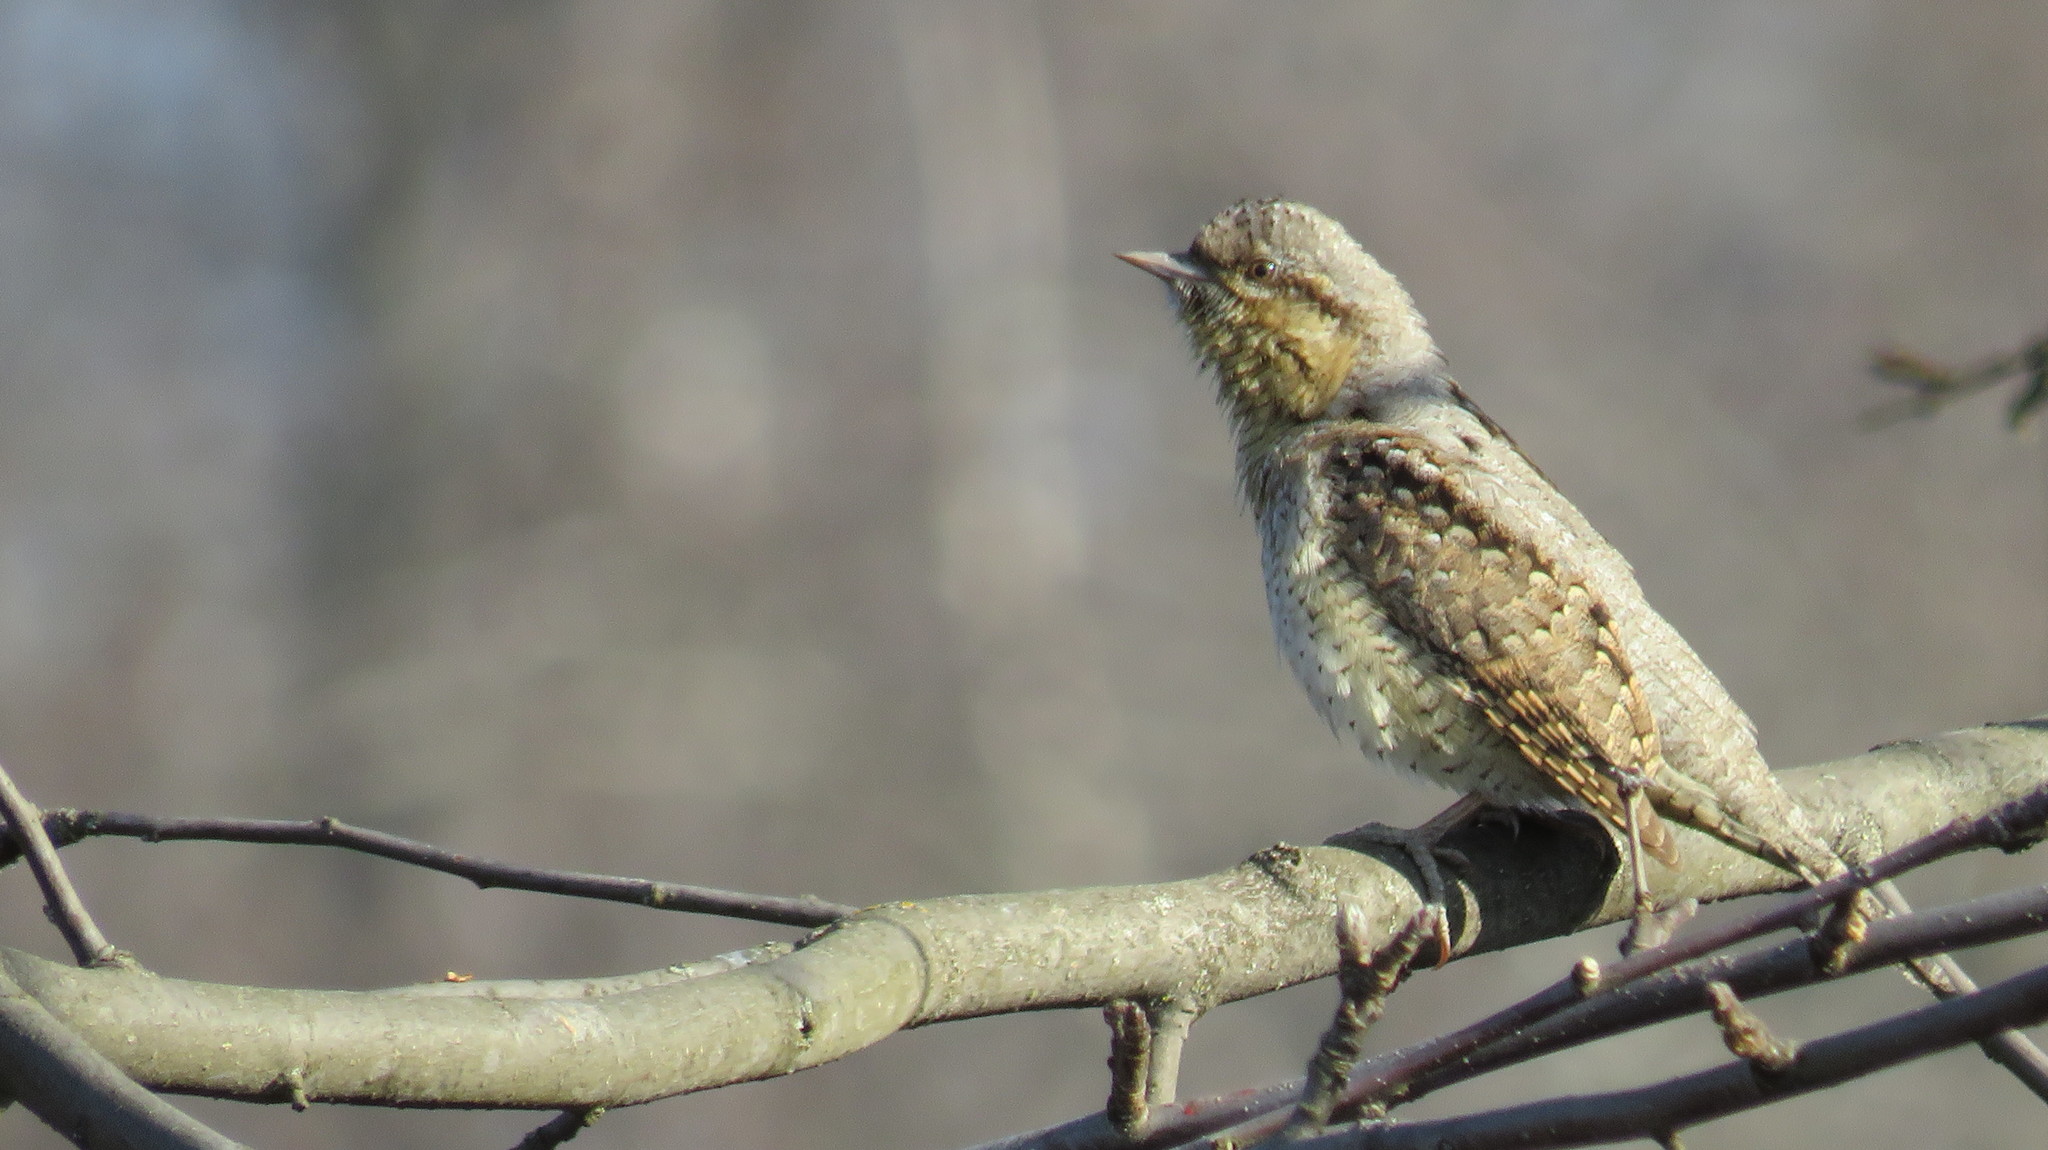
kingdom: Animalia
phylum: Chordata
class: Aves
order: Piciformes
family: Picidae
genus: Jynx
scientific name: Jynx torquilla
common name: Eurasian wryneck
